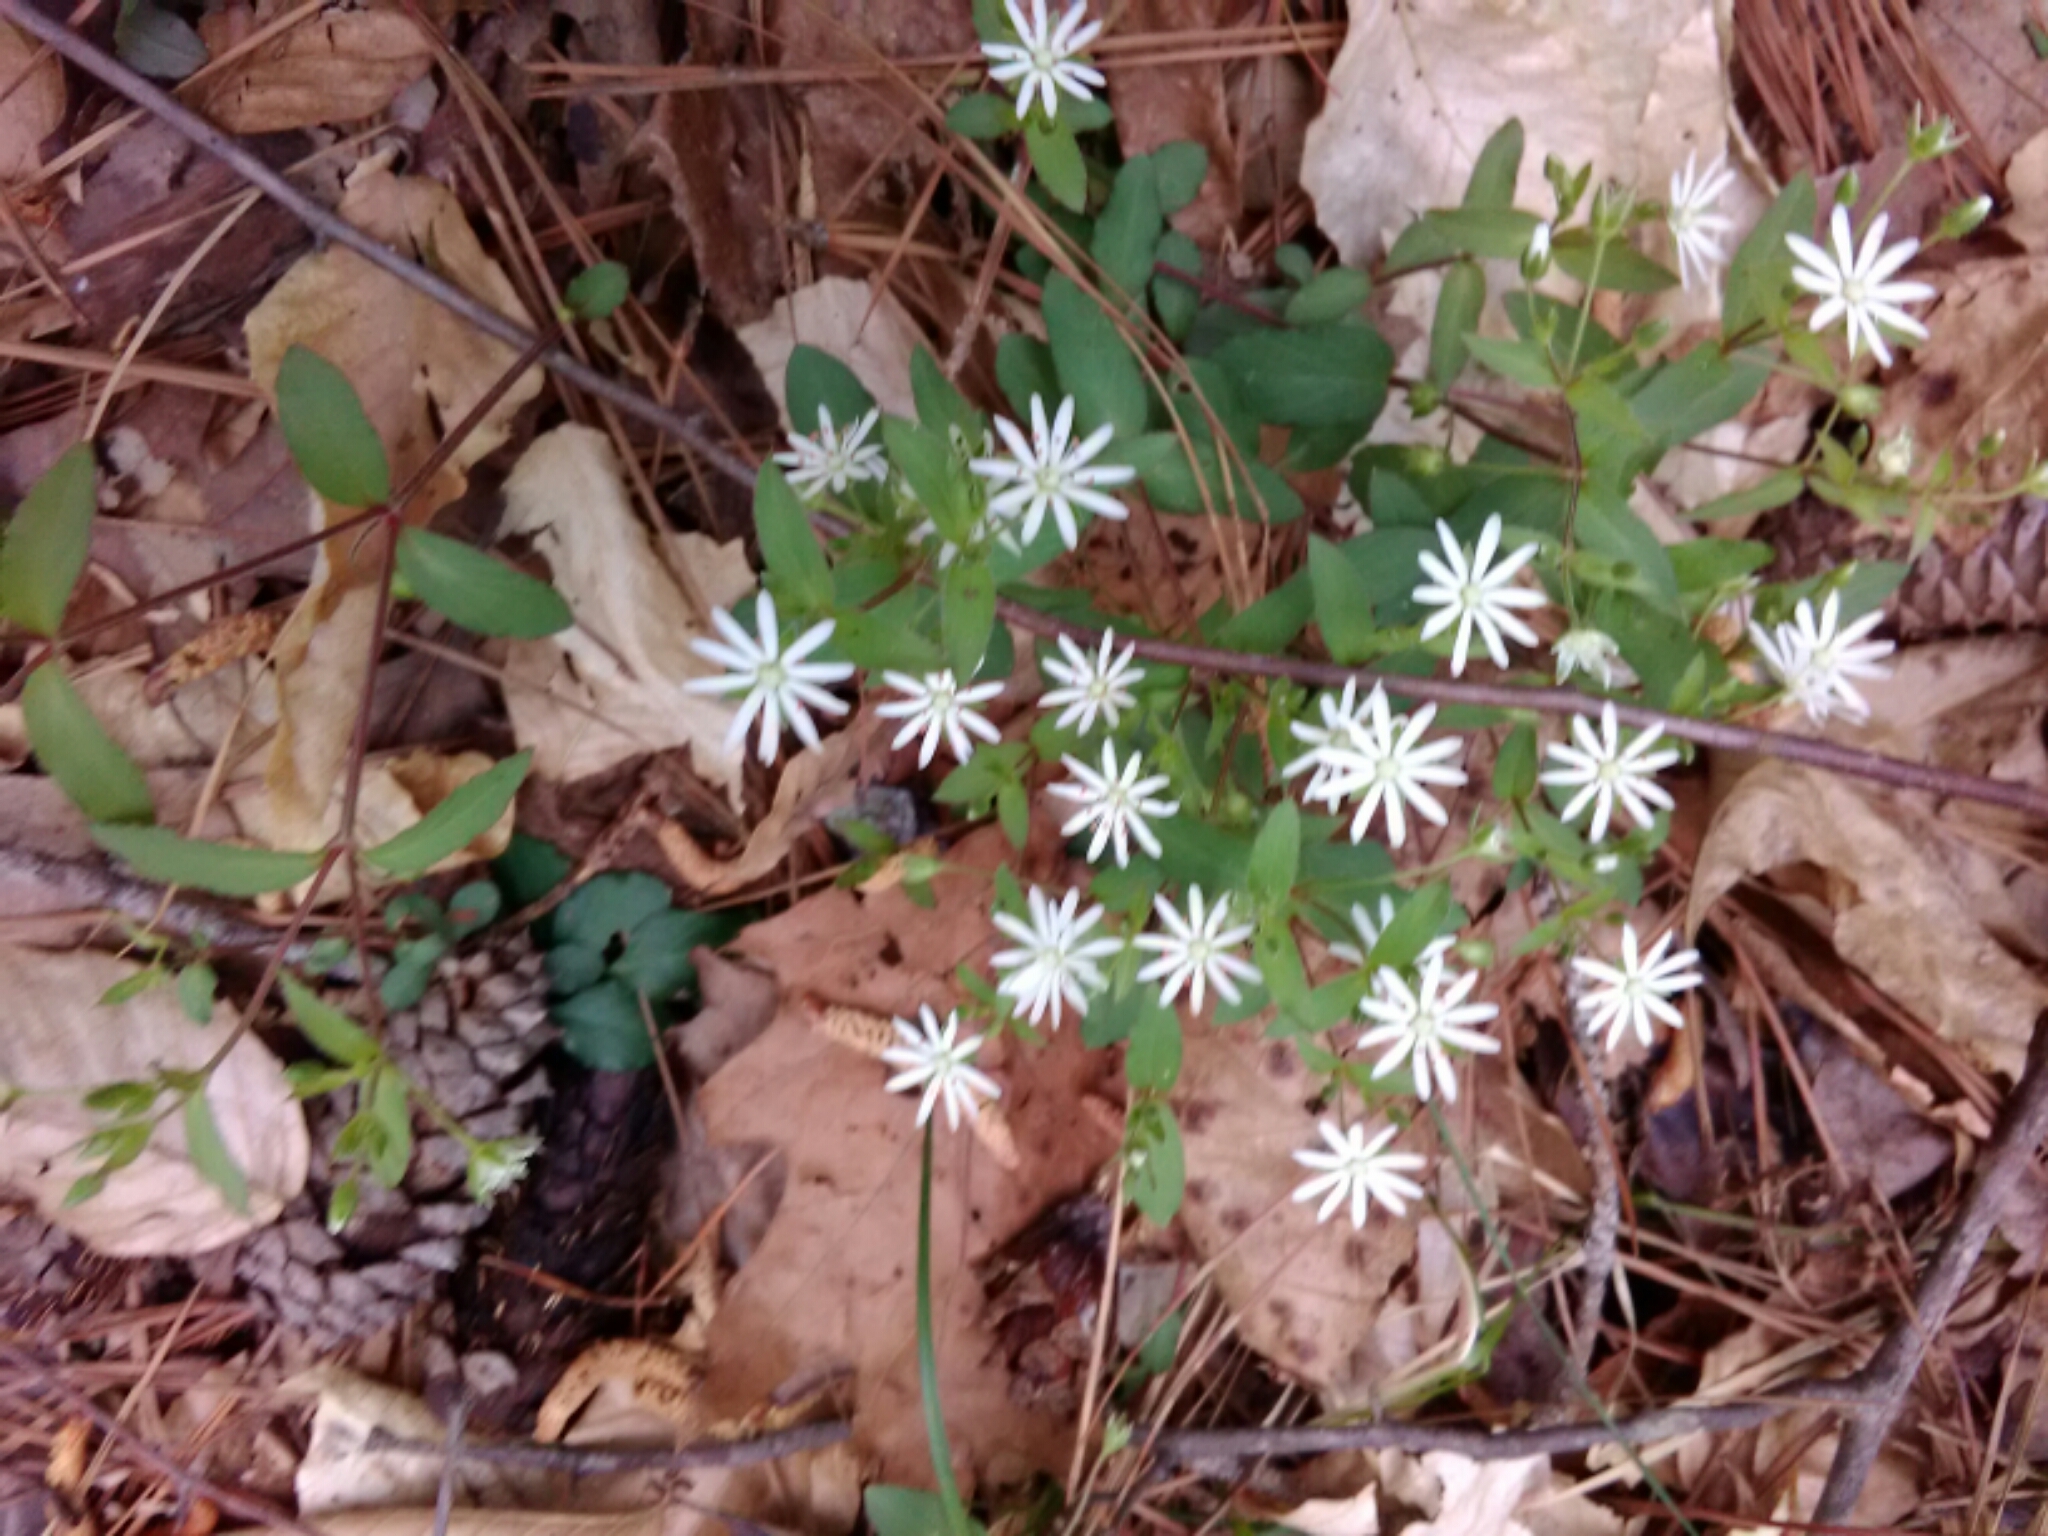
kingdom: Plantae
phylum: Tracheophyta
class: Magnoliopsida
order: Caryophyllales
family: Caryophyllaceae
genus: Stellaria
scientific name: Stellaria pubera
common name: Star chickweed
